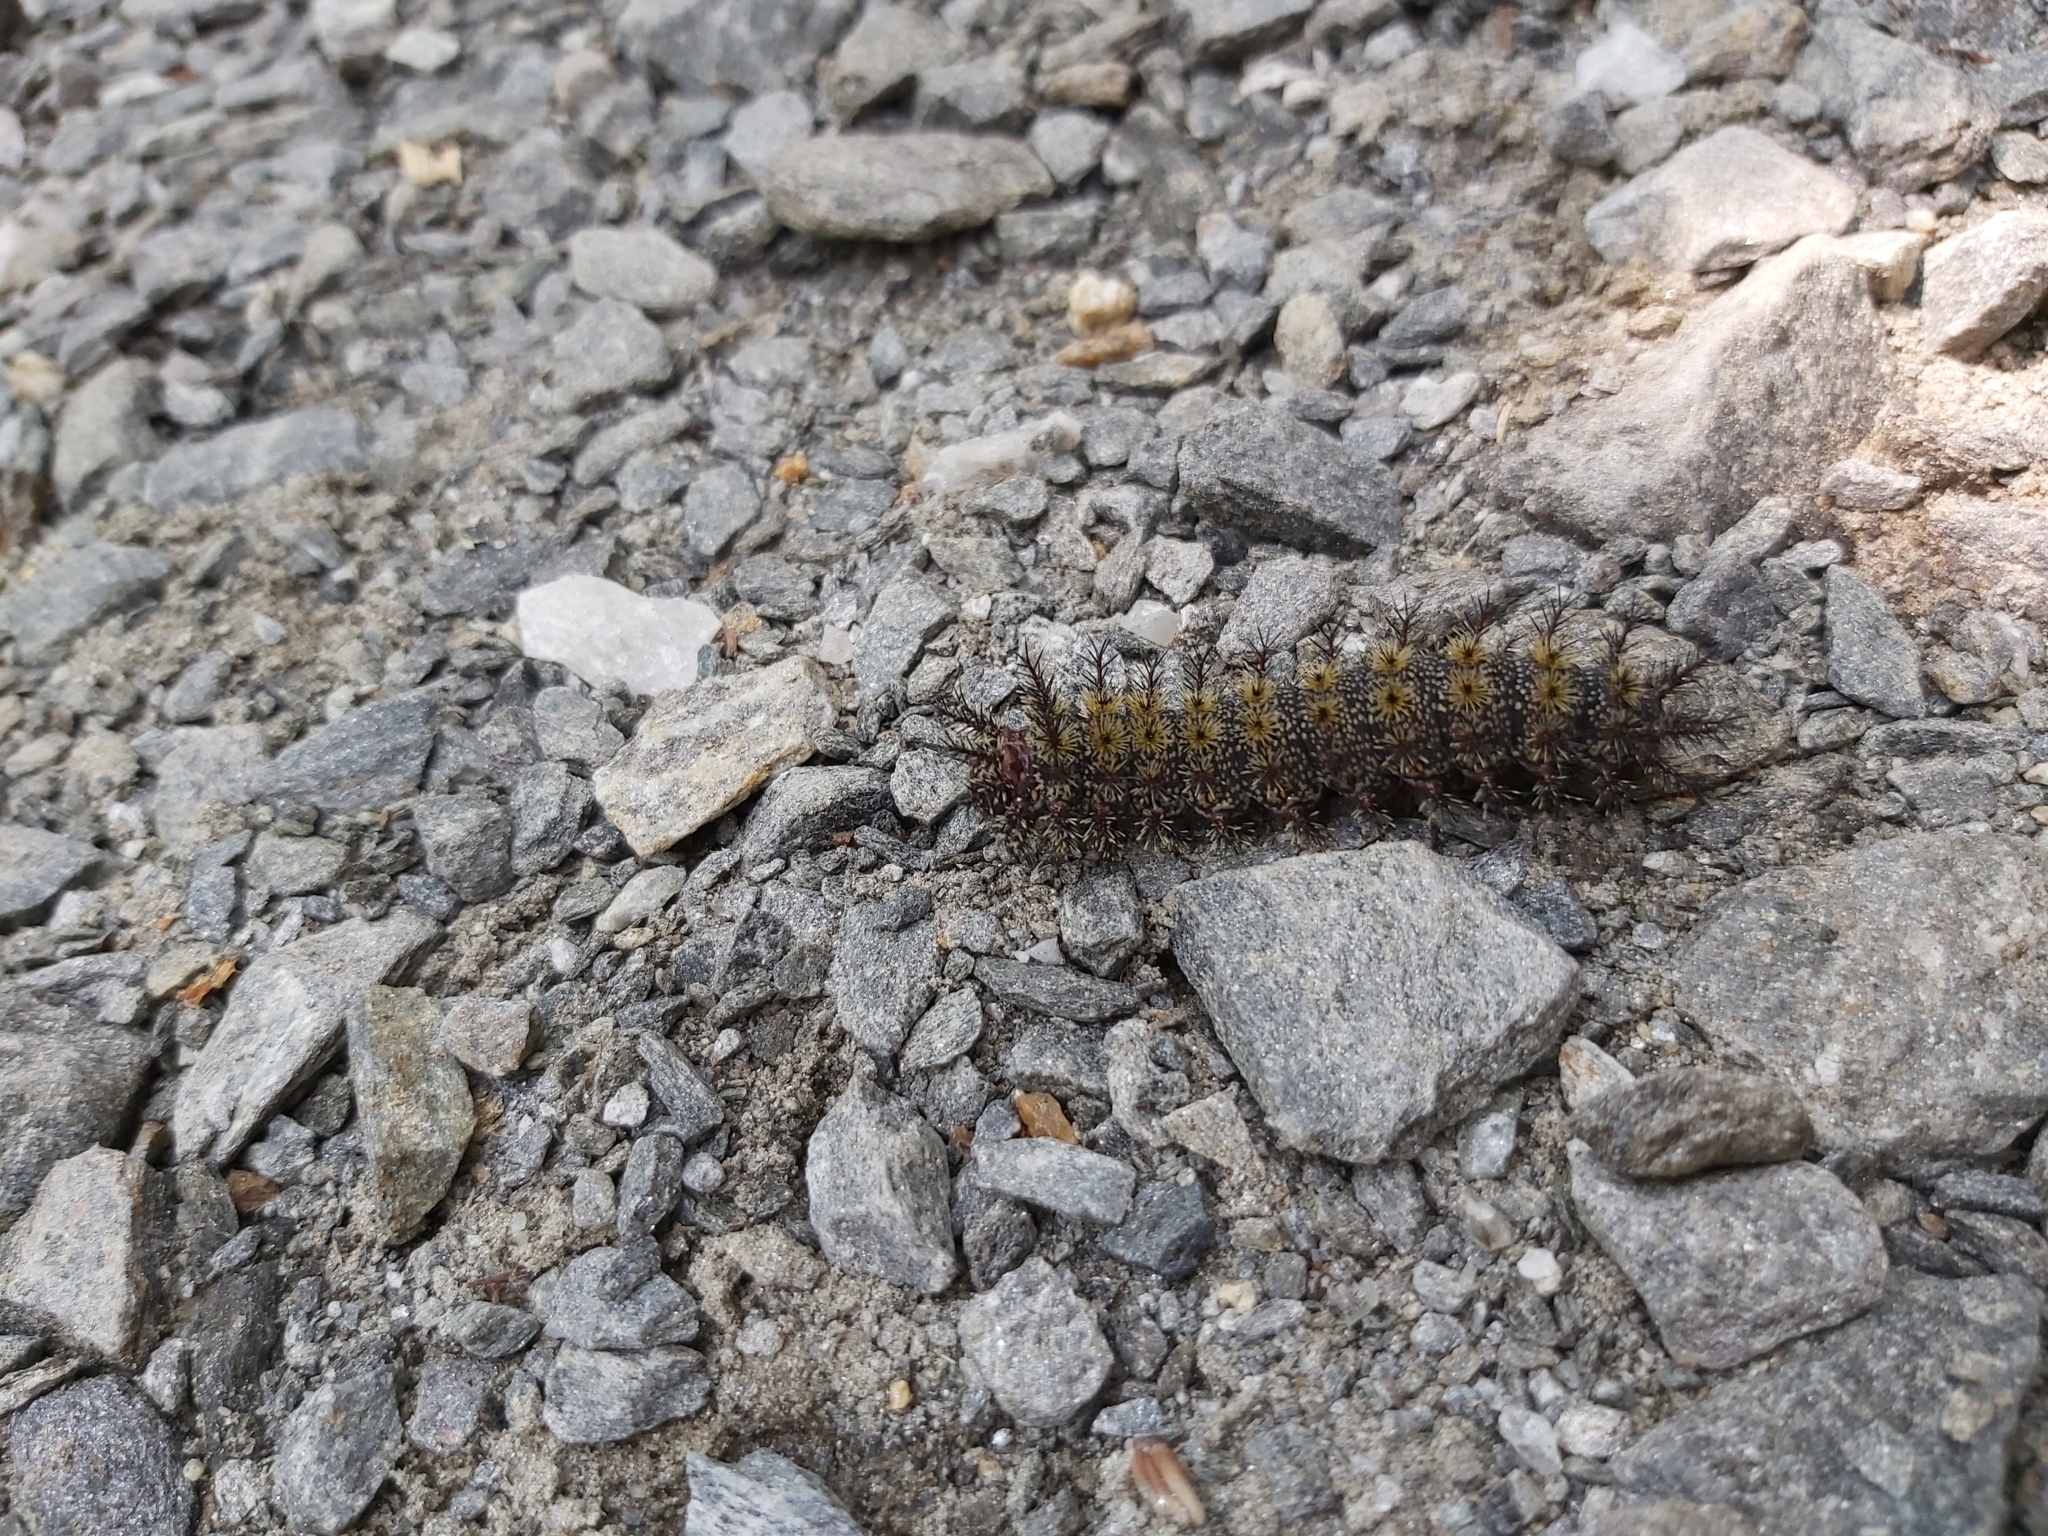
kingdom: Animalia
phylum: Arthropoda
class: Insecta
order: Lepidoptera
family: Saturniidae
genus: Hemileuca
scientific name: Hemileuca maia
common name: Eastern buckmoth
